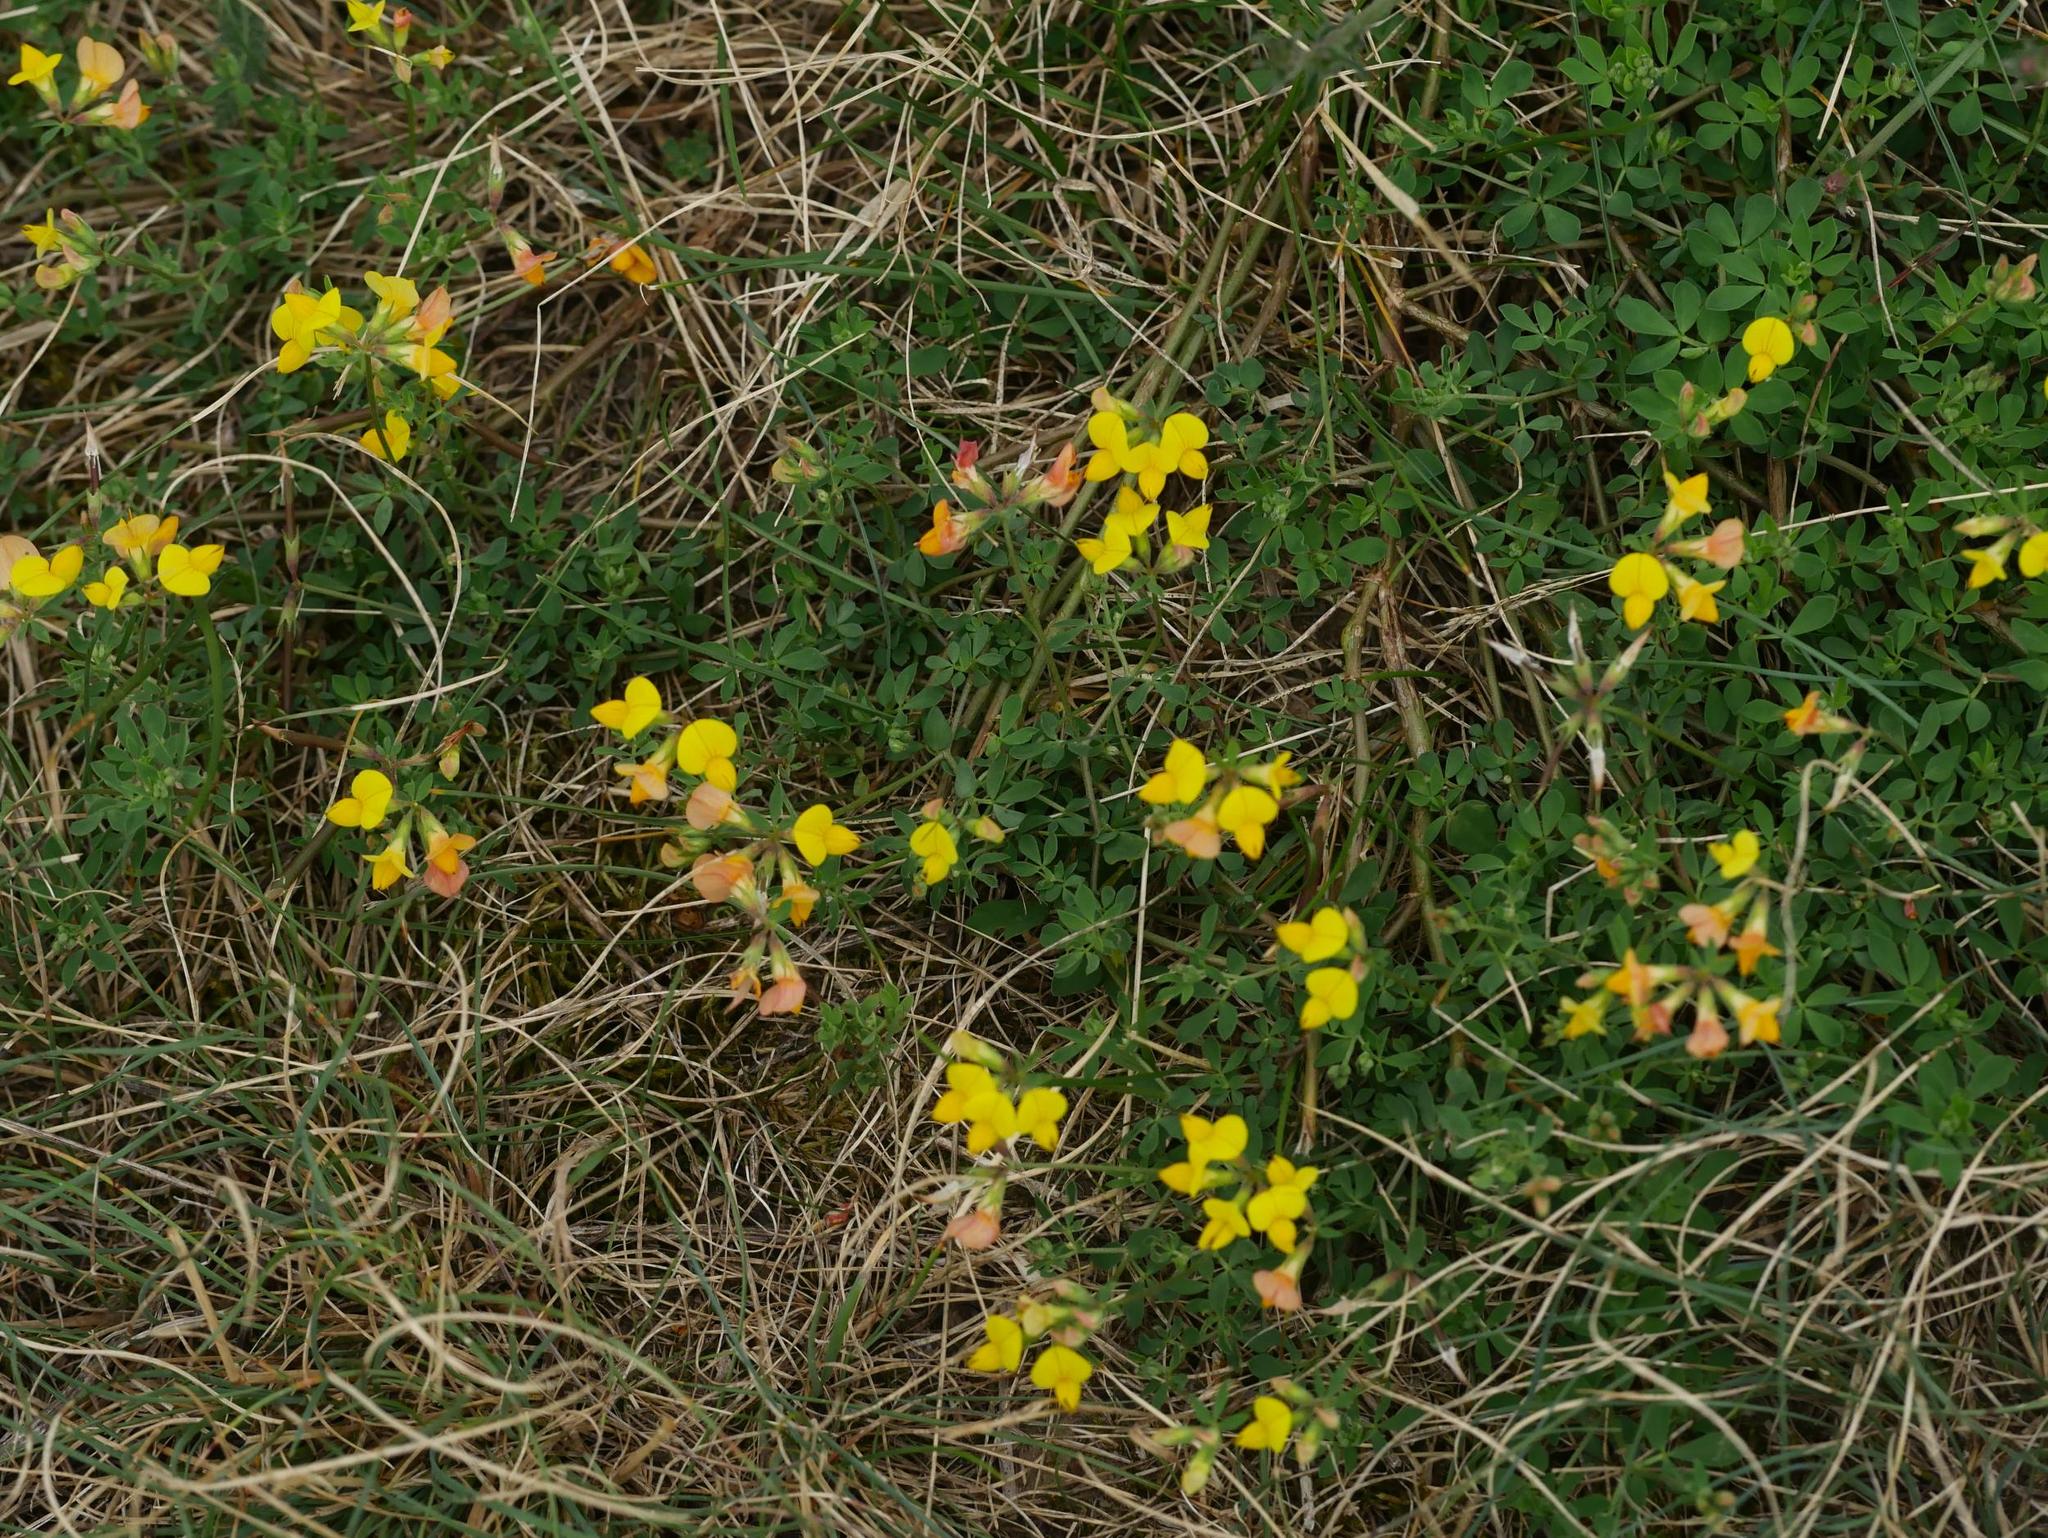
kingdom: Plantae
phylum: Tracheophyta
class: Magnoliopsida
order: Fabales
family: Fabaceae
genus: Lotus
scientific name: Lotus corniculatus
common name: Common bird's-foot-trefoil
